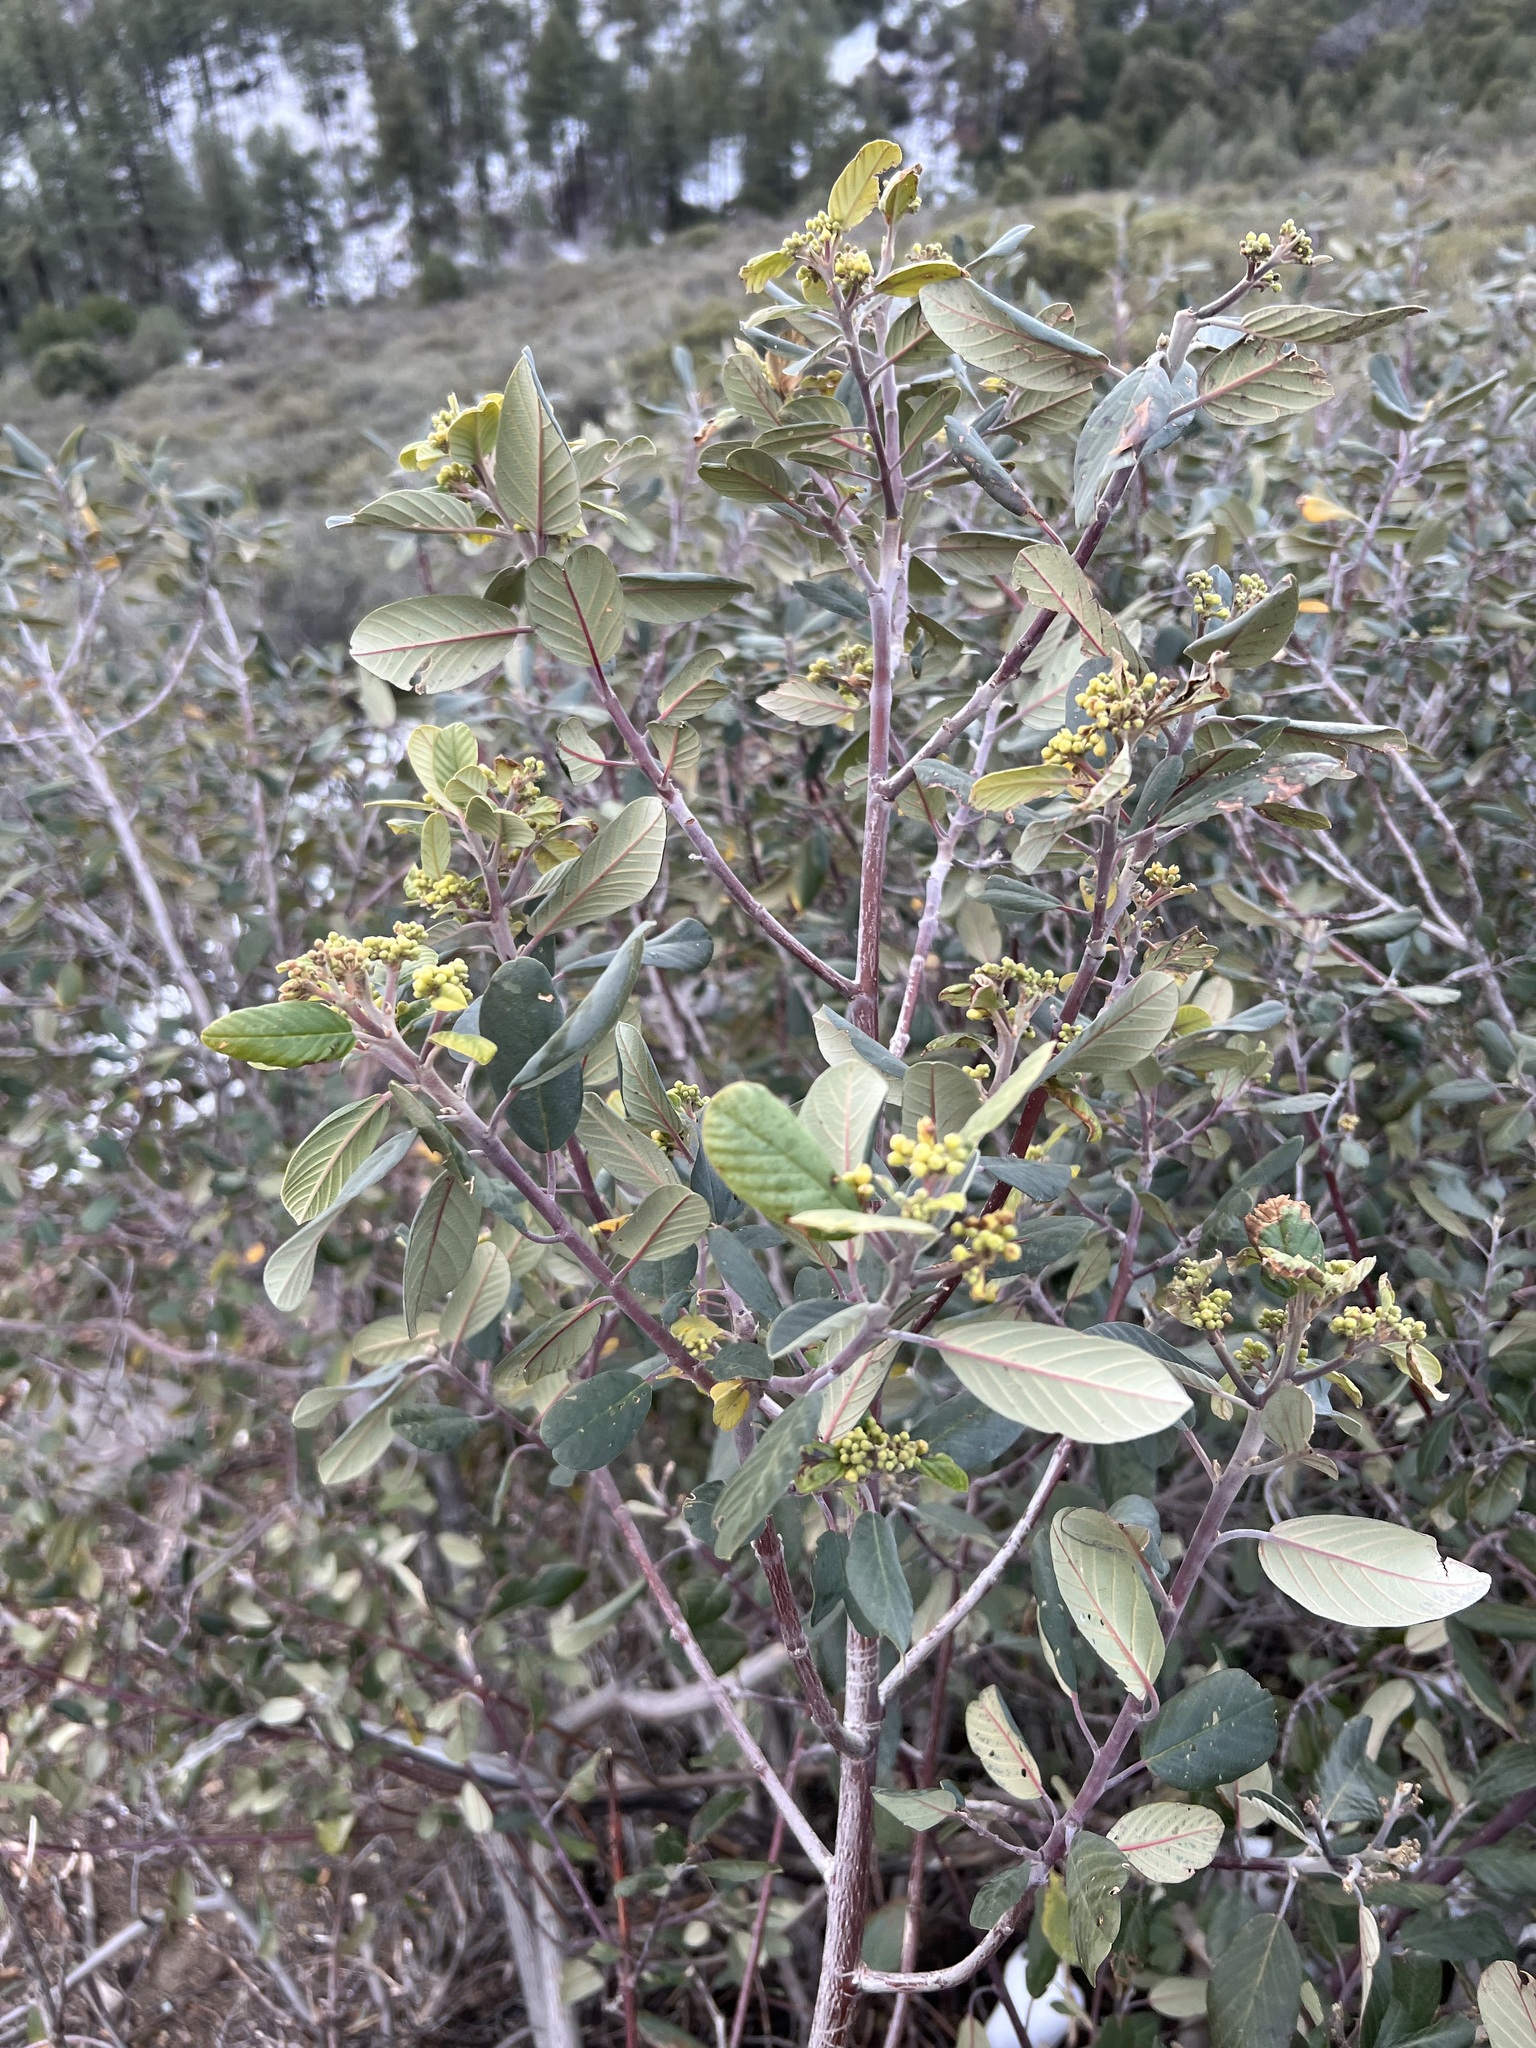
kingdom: Plantae
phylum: Tracheophyta
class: Magnoliopsida
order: Rosales
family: Rhamnaceae
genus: Frangula
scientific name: Frangula californica
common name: California buckthorn
